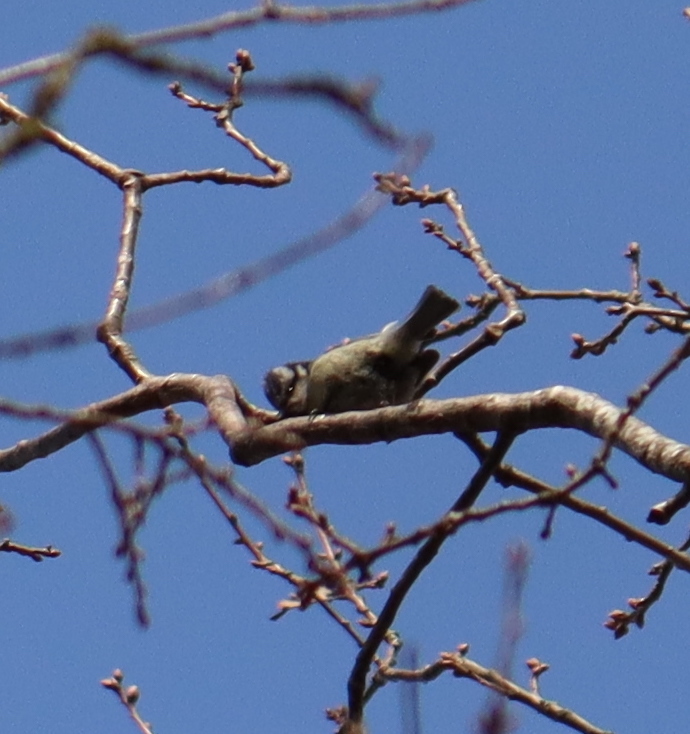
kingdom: Animalia
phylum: Chordata
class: Aves
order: Passeriformes
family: Paridae
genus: Cyanistes
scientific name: Cyanistes caeruleus
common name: Eurasian blue tit
